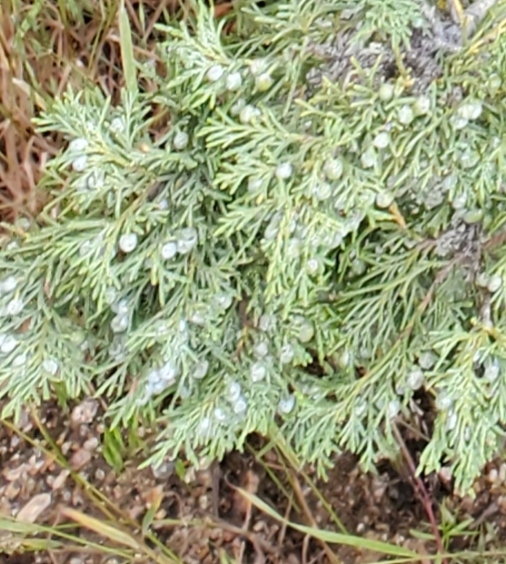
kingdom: Plantae
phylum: Tracheophyta
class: Pinopsida
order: Pinales
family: Cupressaceae
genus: Juniperus
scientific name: Juniperus scopulorum
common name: Rocky mountain juniper
